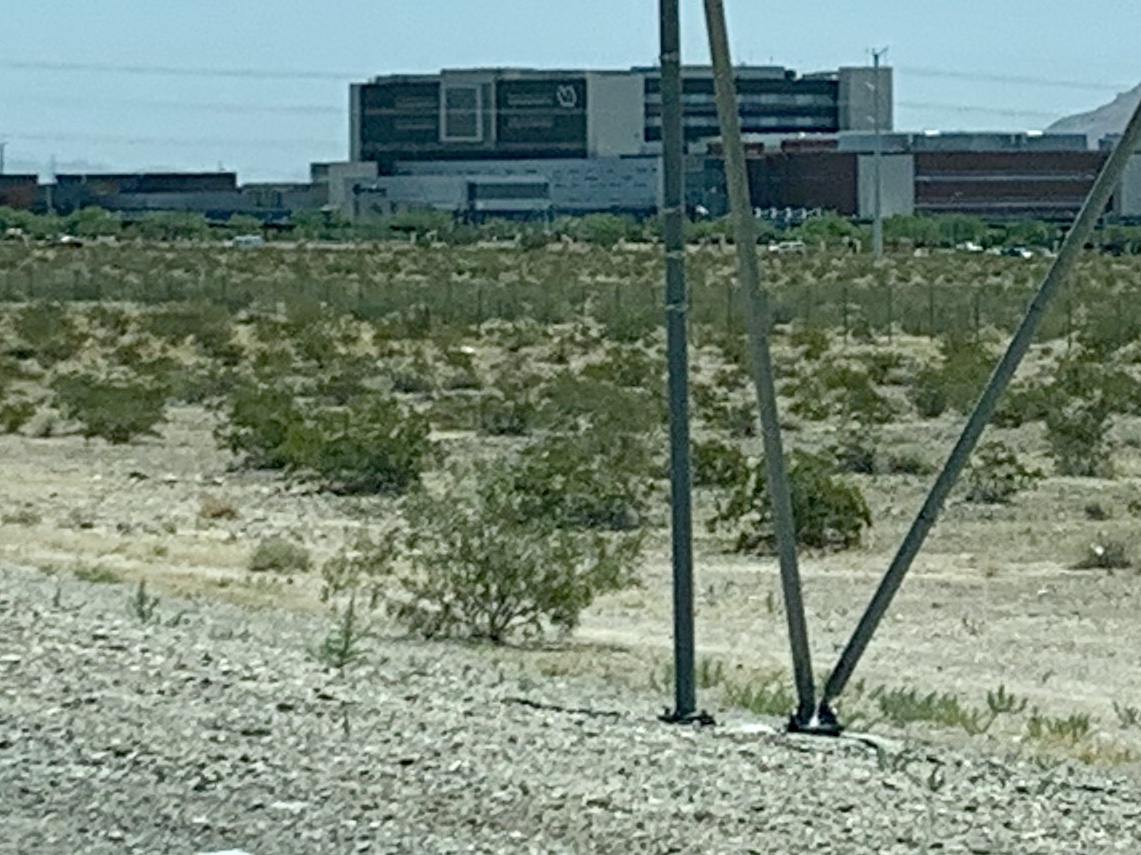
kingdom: Plantae
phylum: Tracheophyta
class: Magnoliopsida
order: Zygophyllales
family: Zygophyllaceae
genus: Larrea
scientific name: Larrea tridentata
